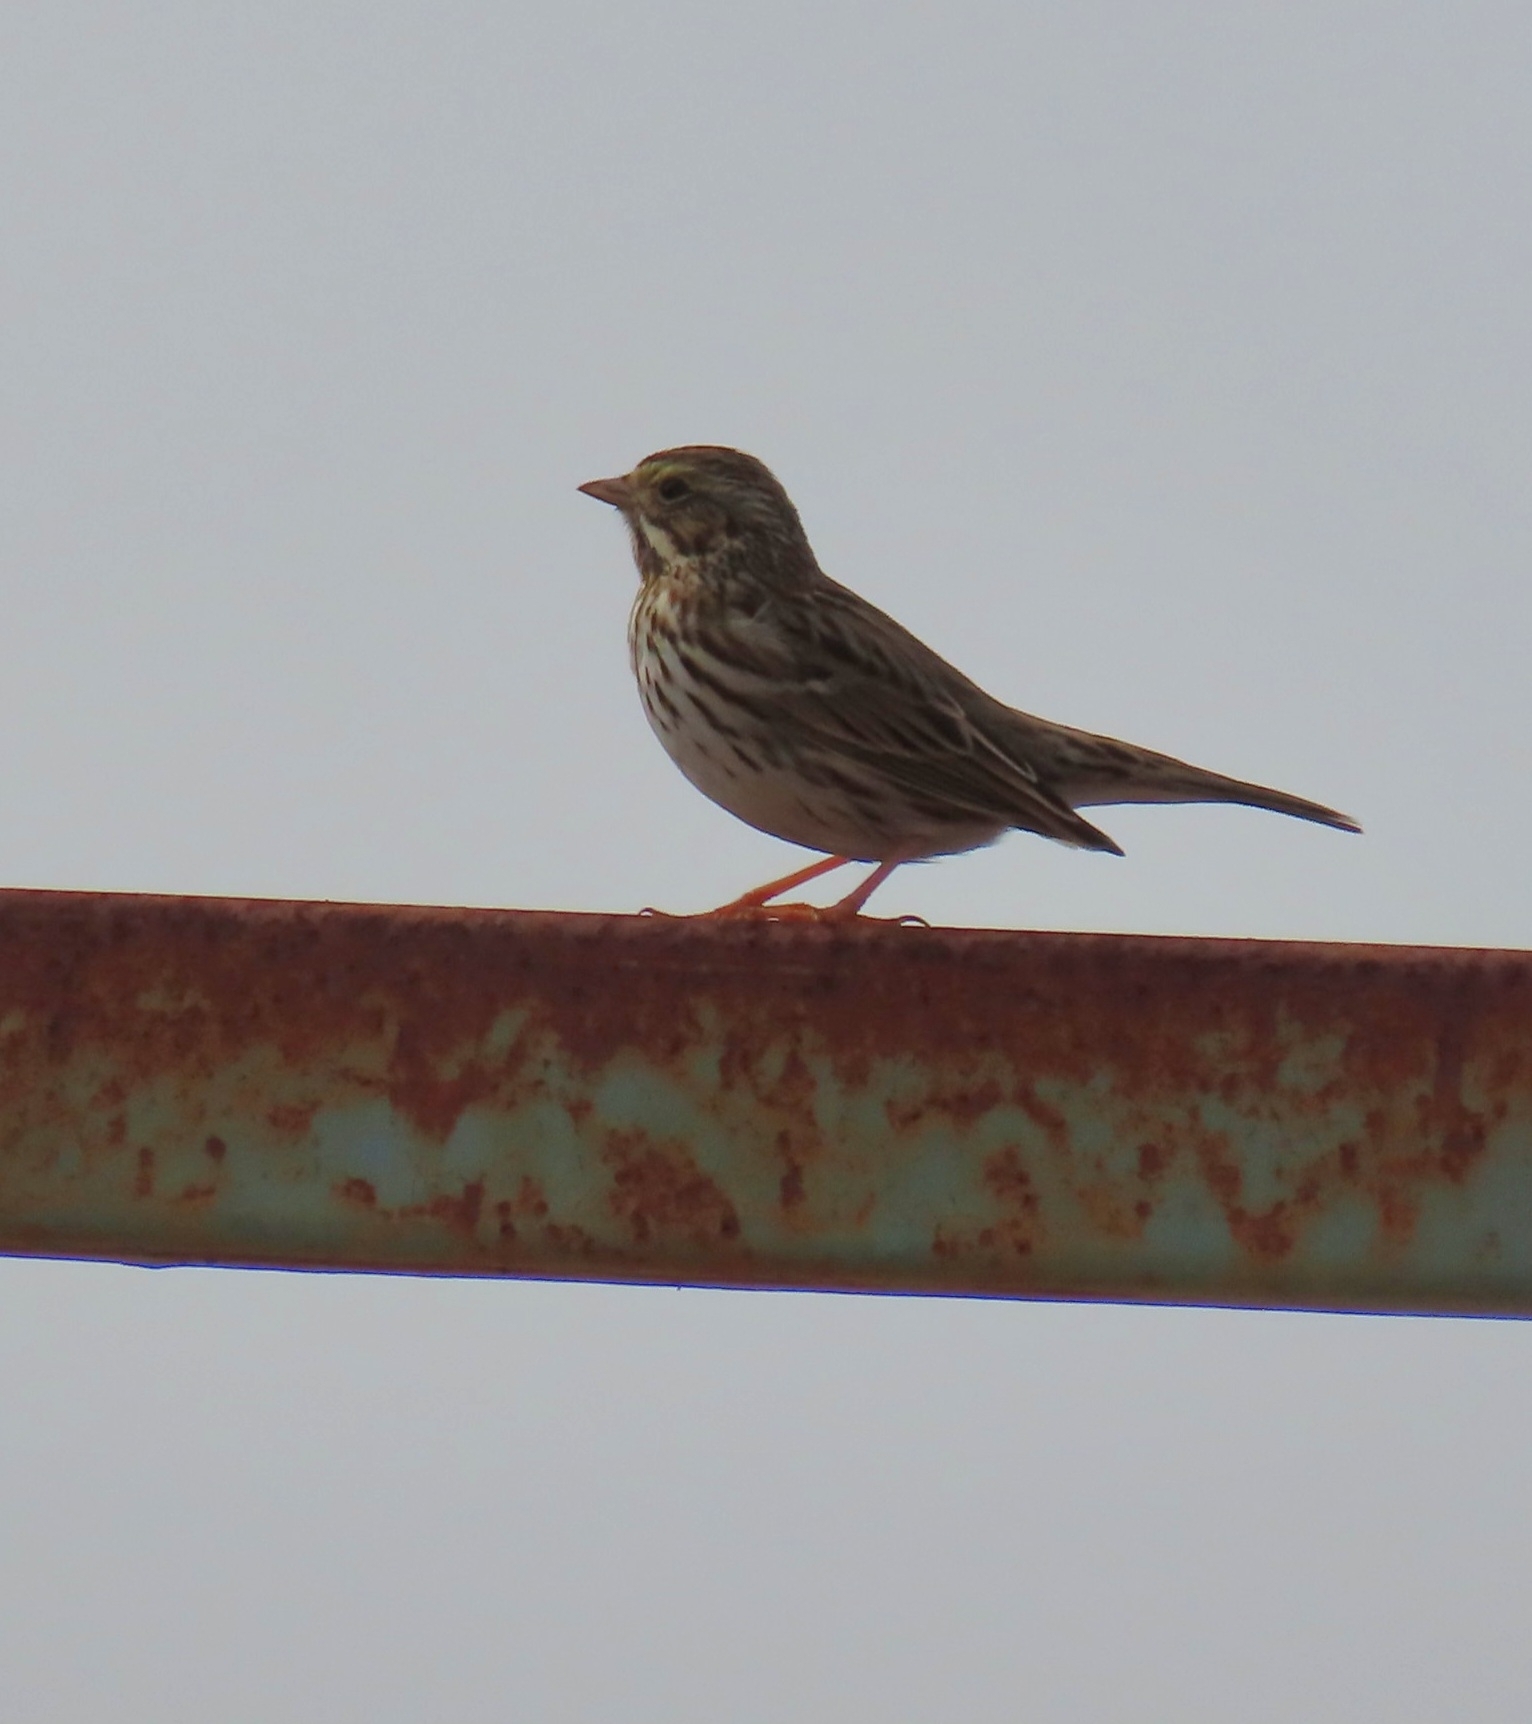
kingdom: Animalia
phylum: Chordata
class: Aves
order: Passeriformes
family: Passerellidae
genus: Passerculus
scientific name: Passerculus sandwichensis
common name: Savannah sparrow
